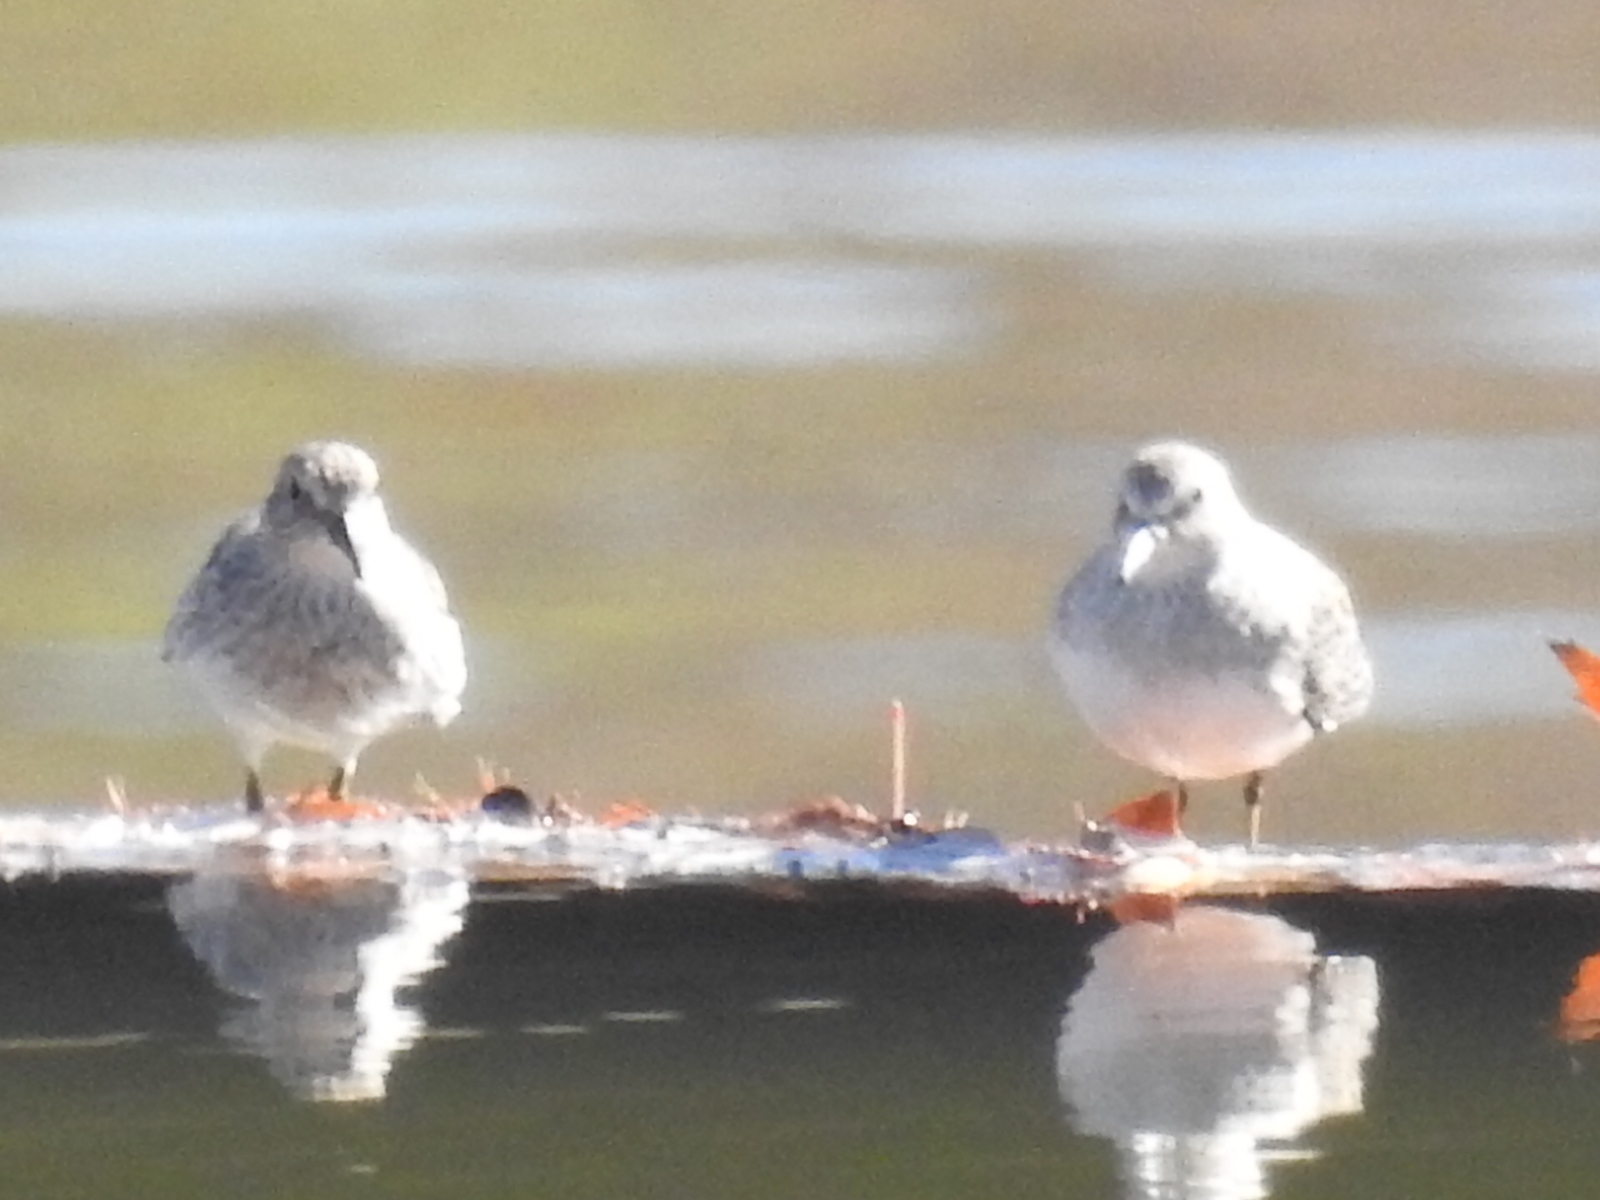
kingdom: Animalia
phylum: Chordata
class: Aves
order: Charadriiformes
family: Scolopacidae
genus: Calidris
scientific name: Calidris minutilla
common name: Least sandpiper
